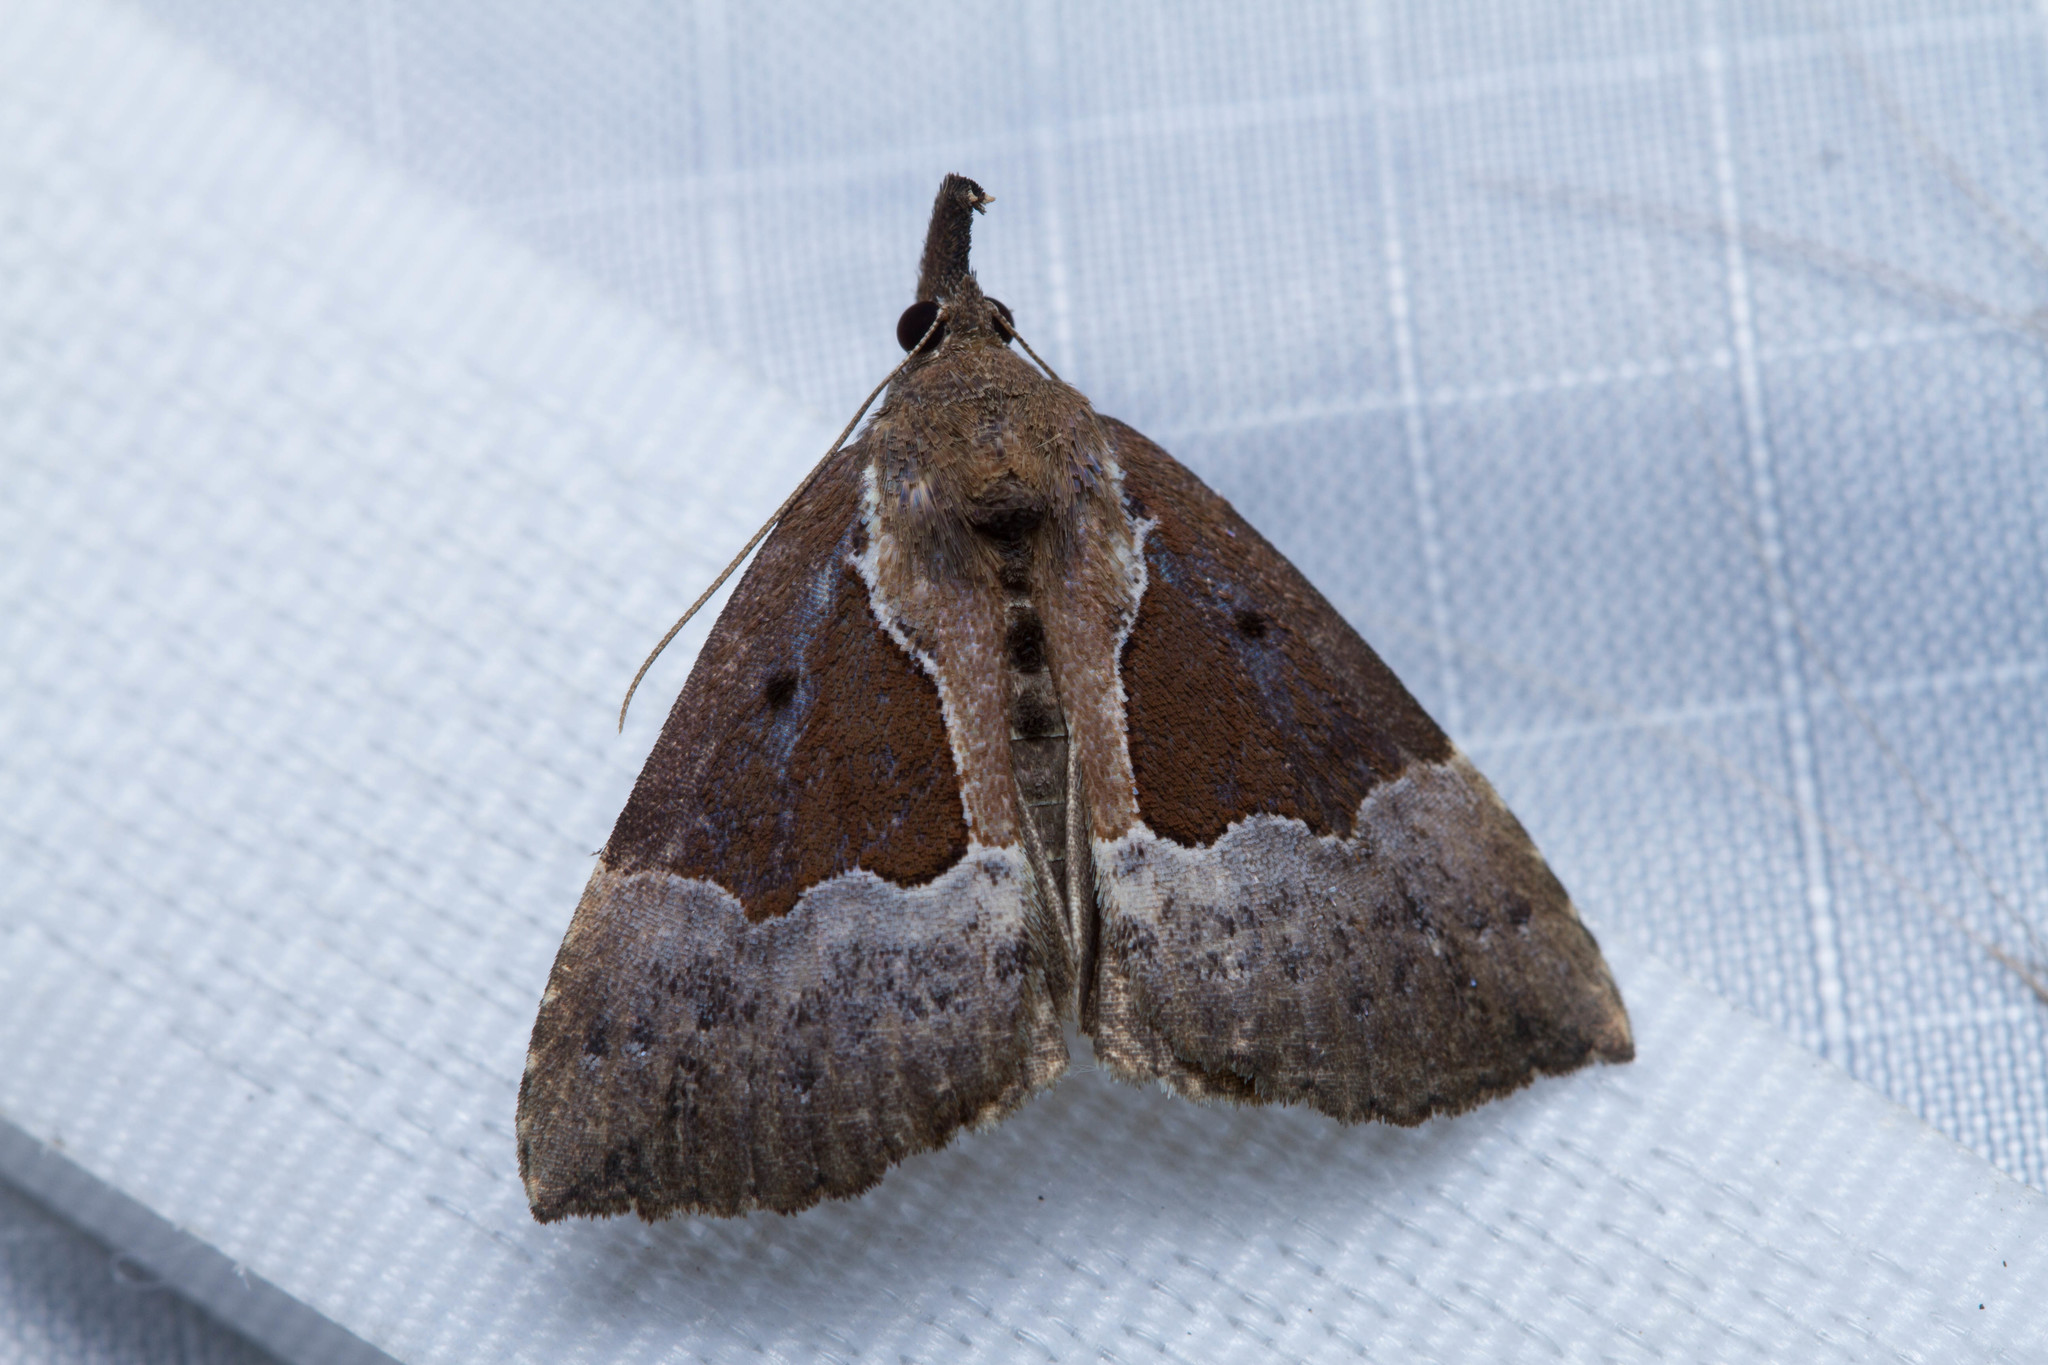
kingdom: Animalia
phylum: Arthropoda
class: Insecta
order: Lepidoptera
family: Erebidae
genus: Hypena
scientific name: Hypena bijugalis
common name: Dimorphic bomolocha moth
